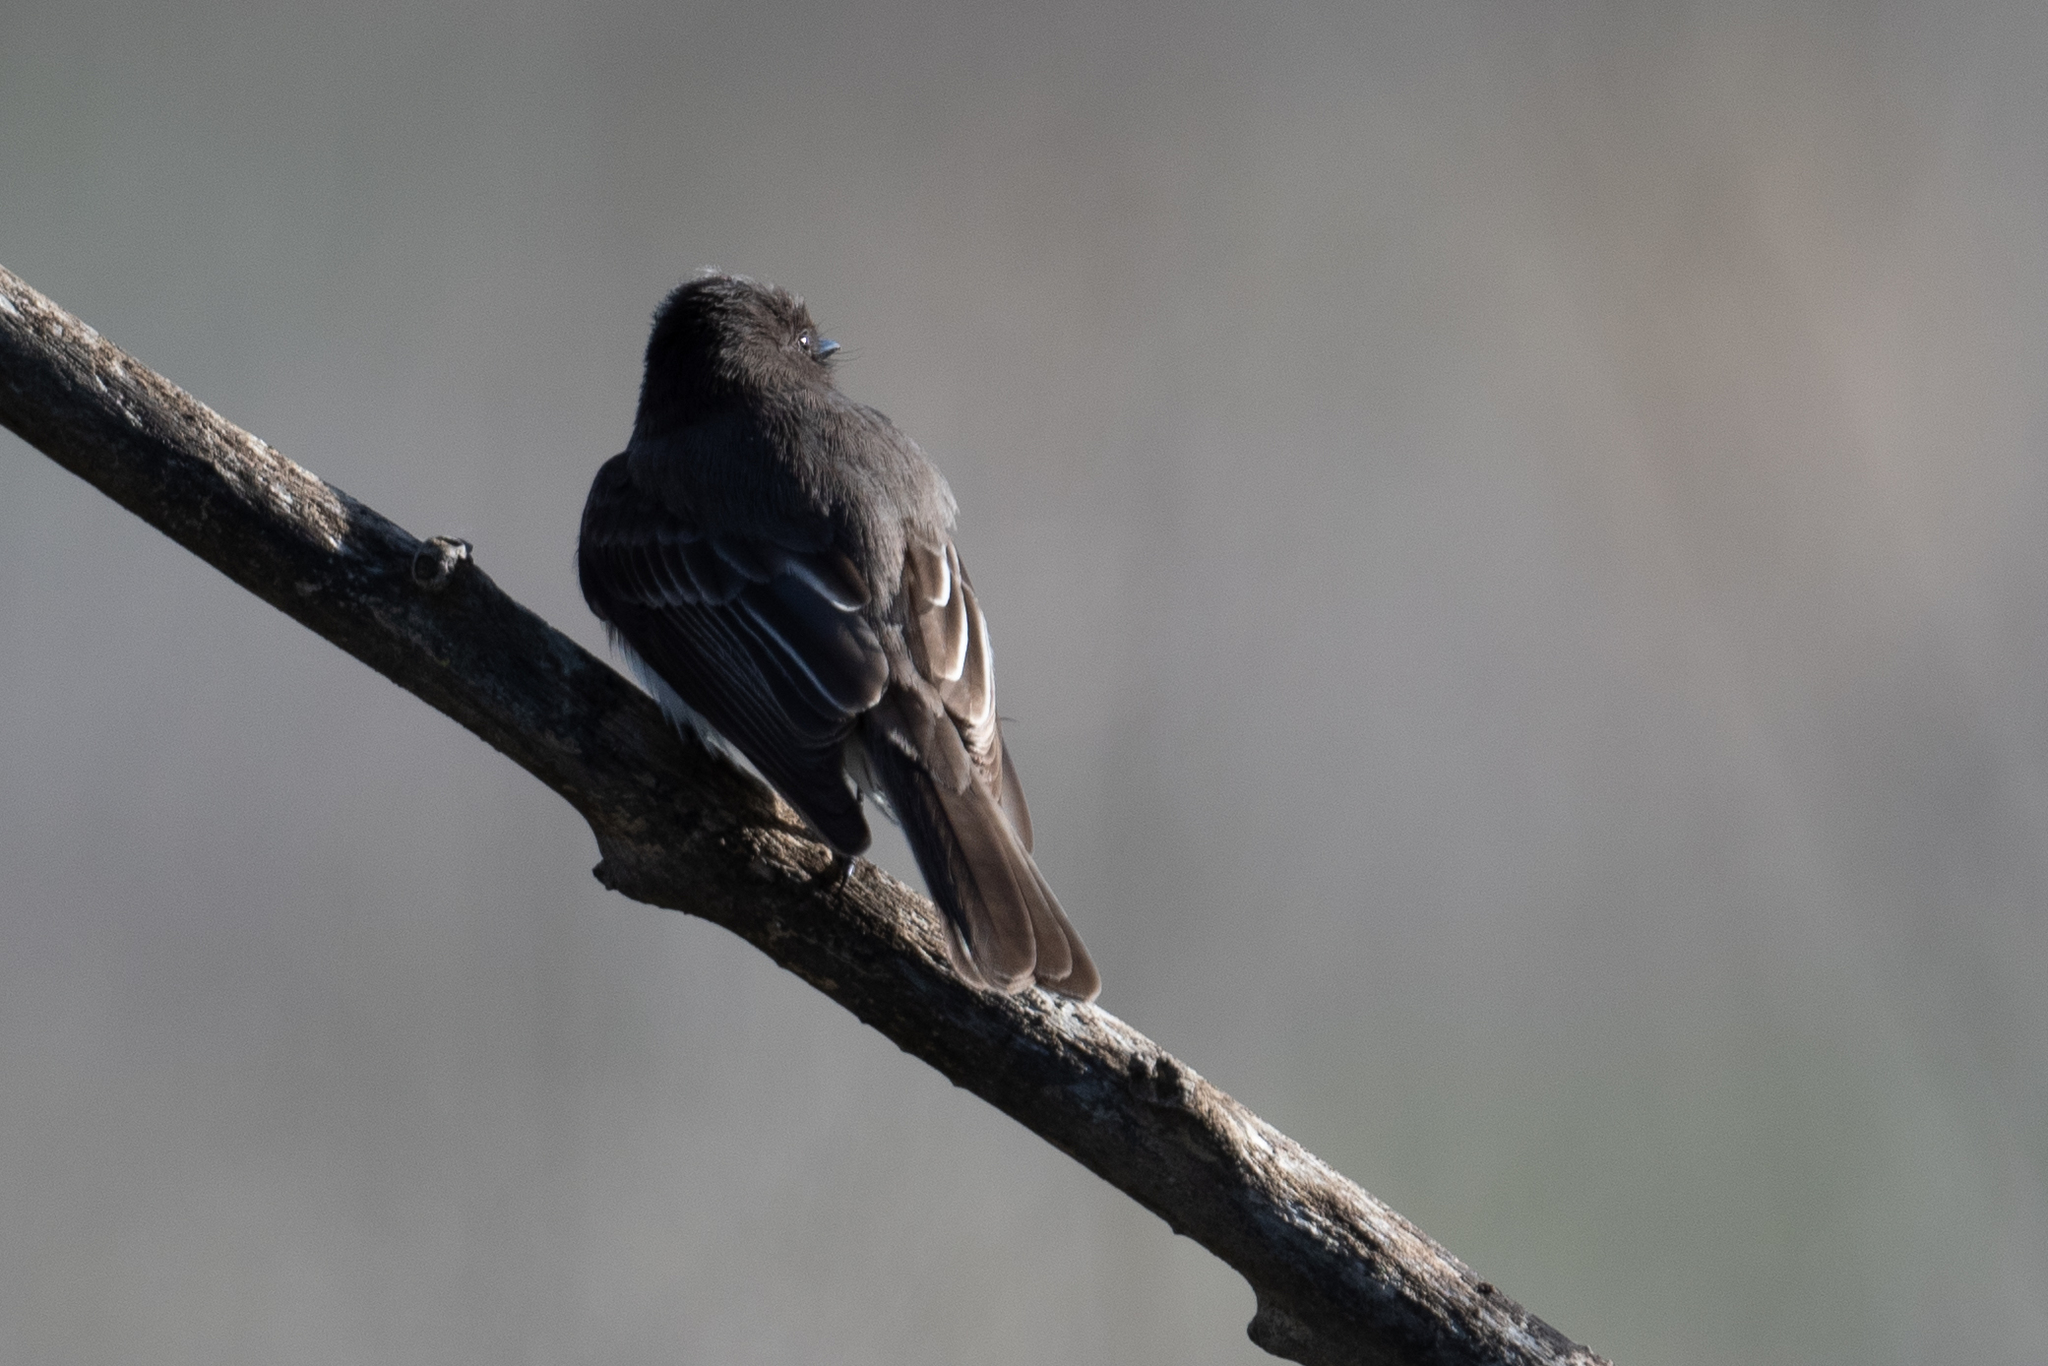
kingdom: Animalia
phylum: Chordata
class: Aves
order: Passeriformes
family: Tyrannidae
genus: Sayornis
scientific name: Sayornis nigricans
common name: Black phoebe
